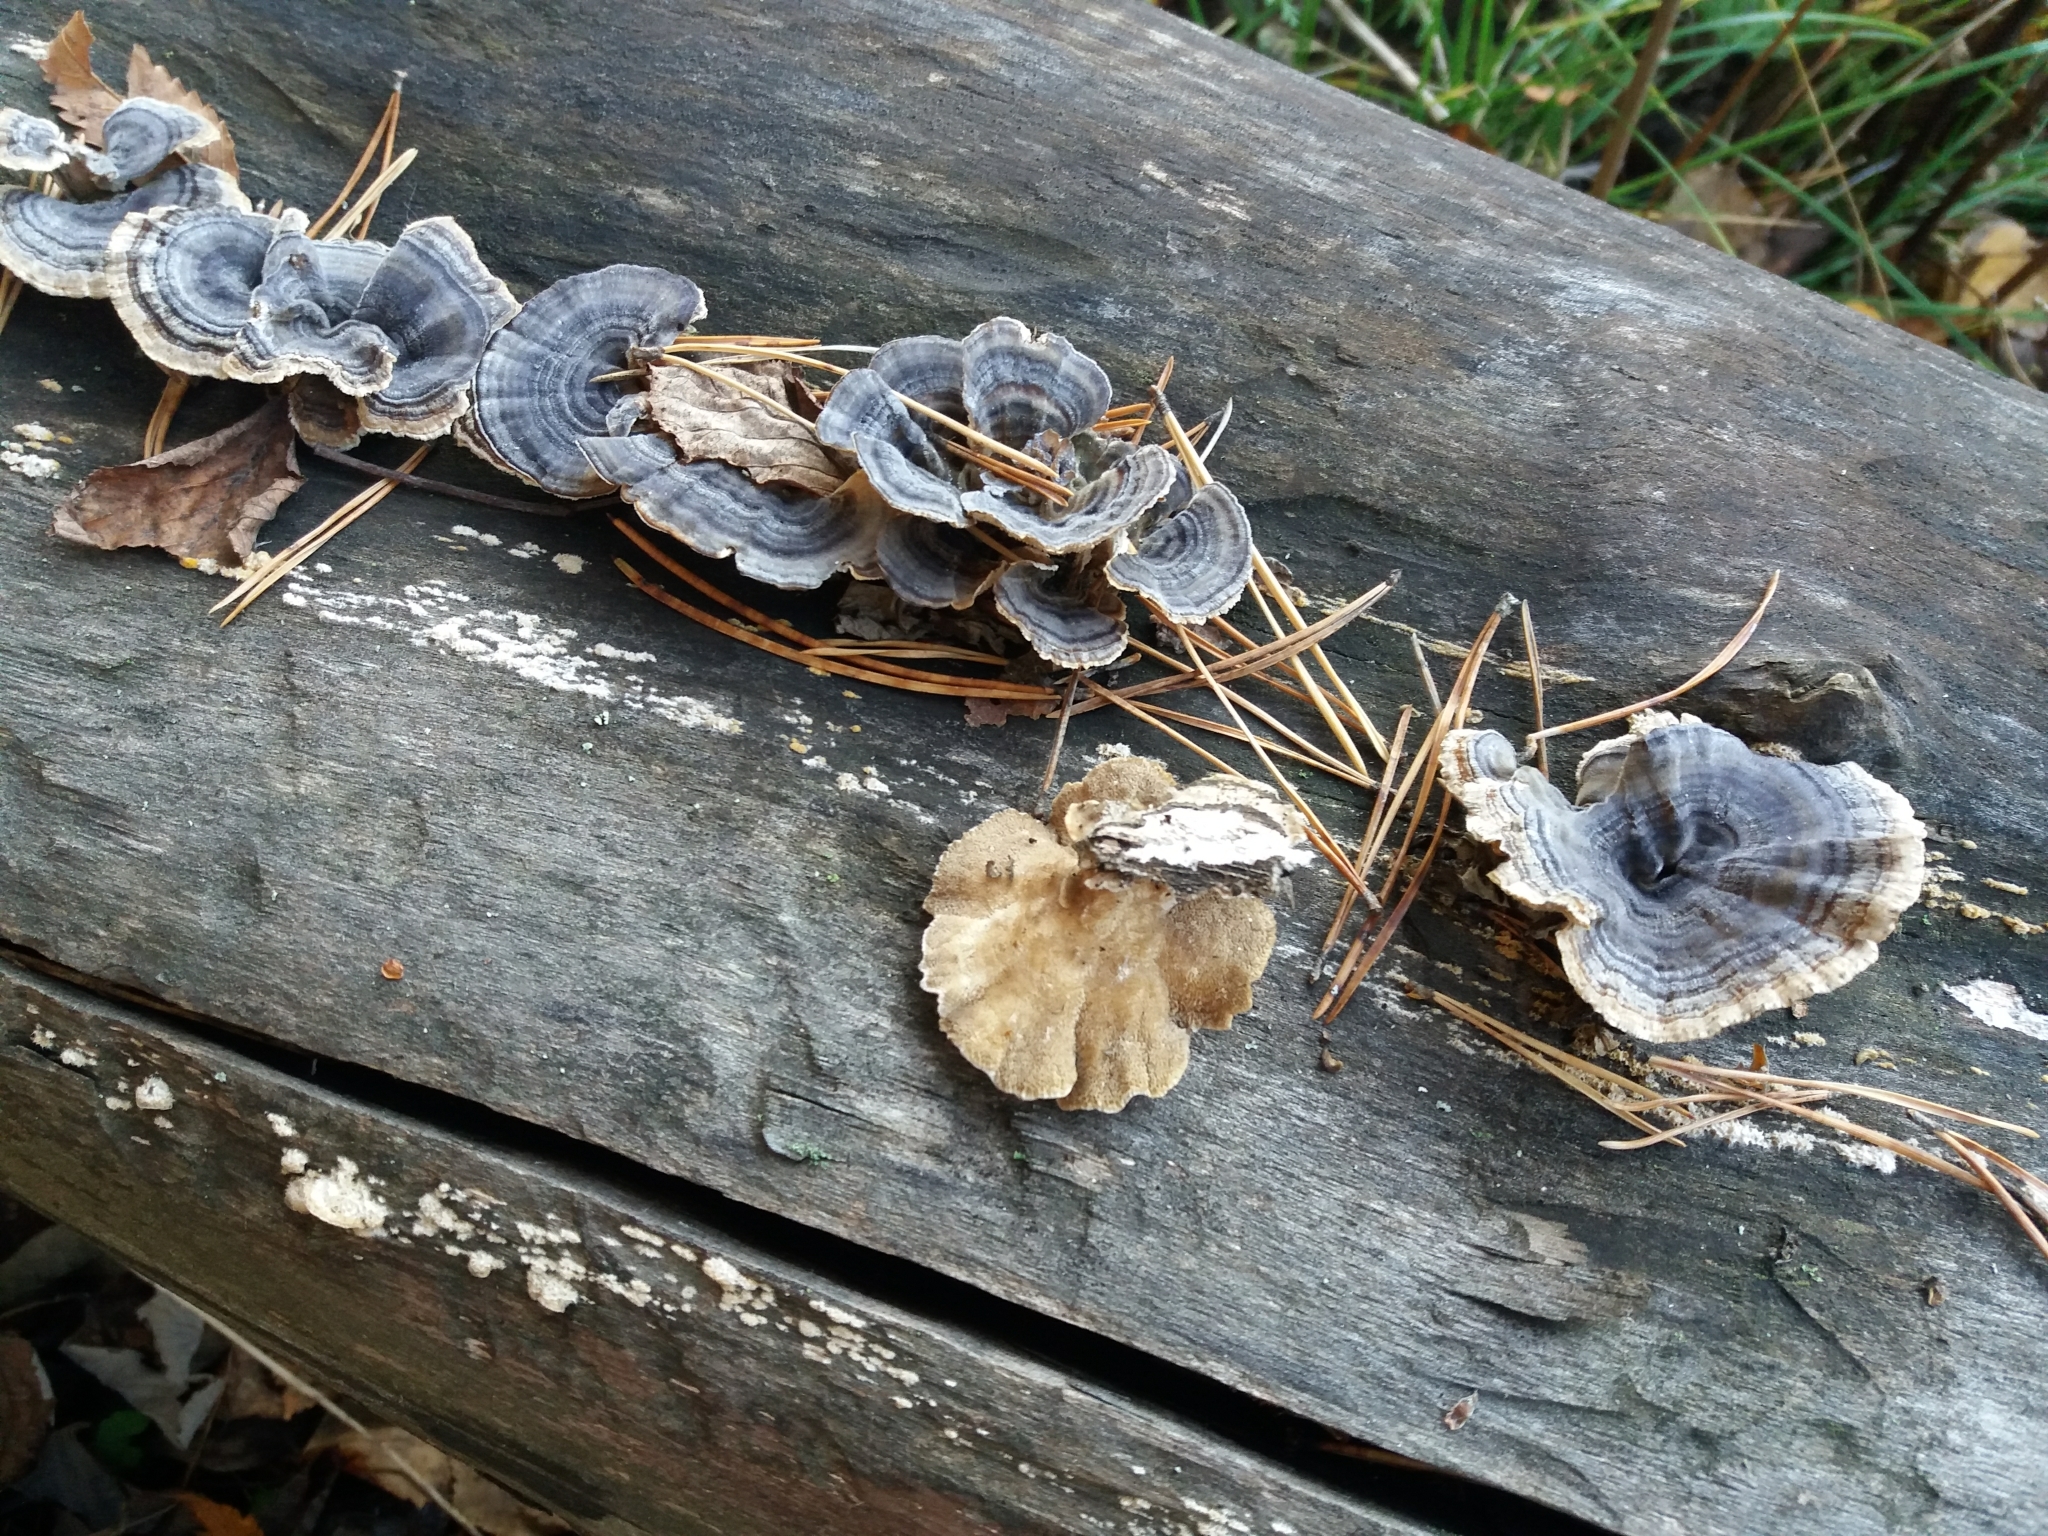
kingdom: Fungi
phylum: Basidiomycota
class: Agaricomycetes
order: Polyporales
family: Polyporaceae
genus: Trametes
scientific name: Trametes versicolor
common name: Turkeytail
